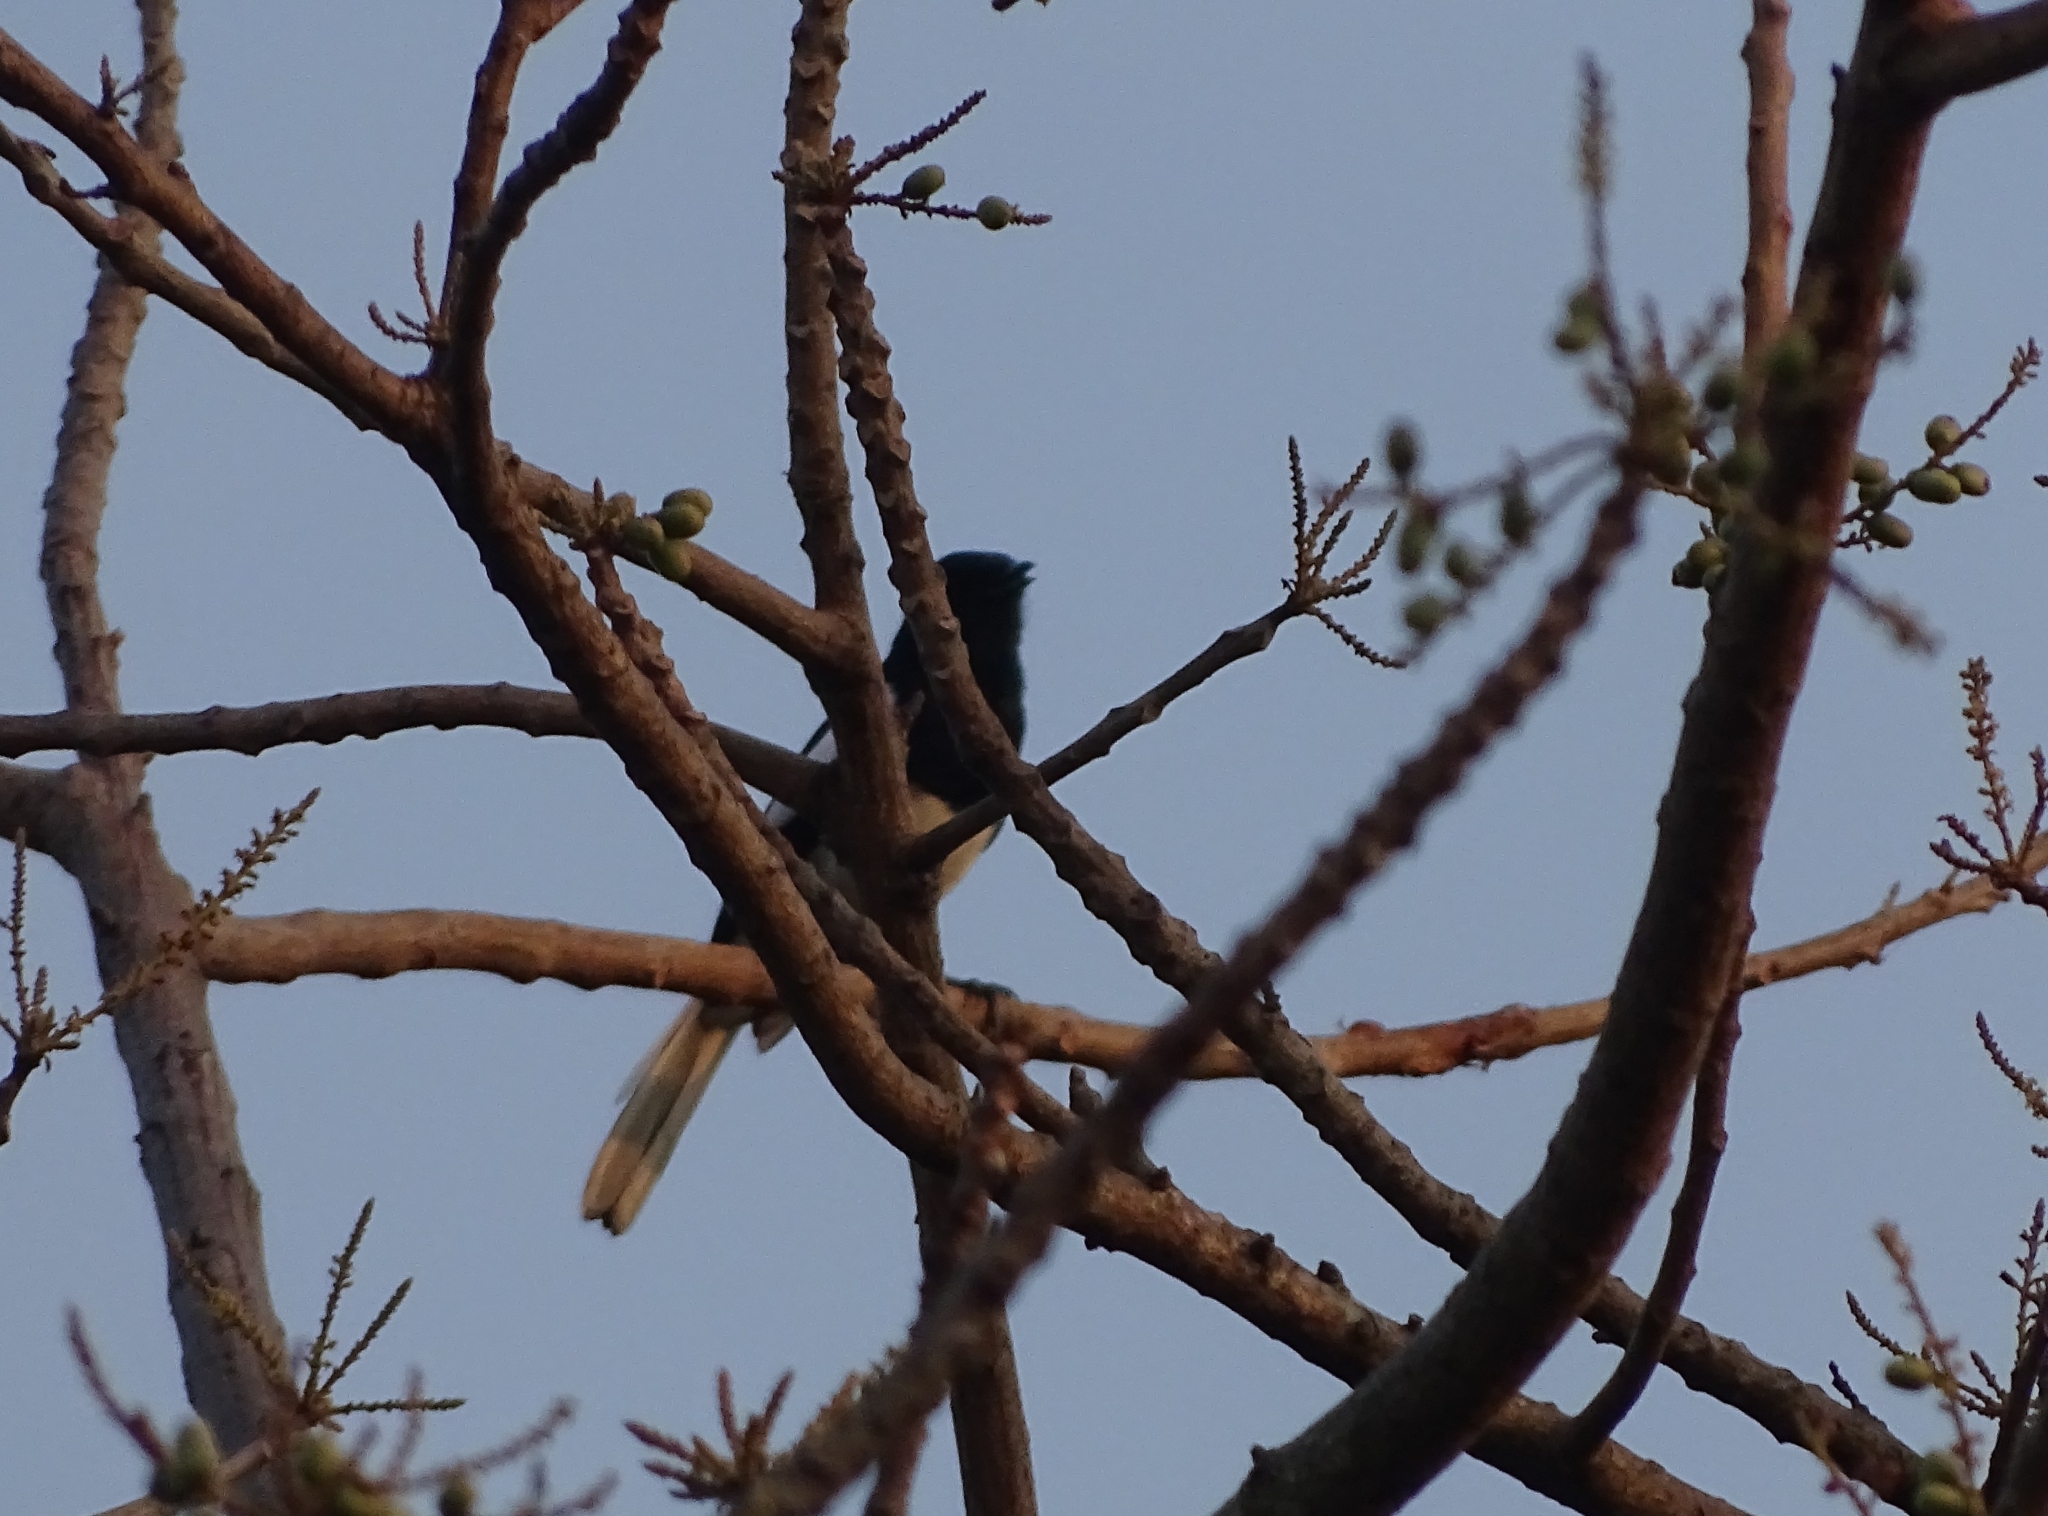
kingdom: Animalia
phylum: Chordata
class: Aves
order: Passeriformes
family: Muscicapidae
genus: Copsychus
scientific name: Copsychus saularis
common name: Oriental magpie-robin
